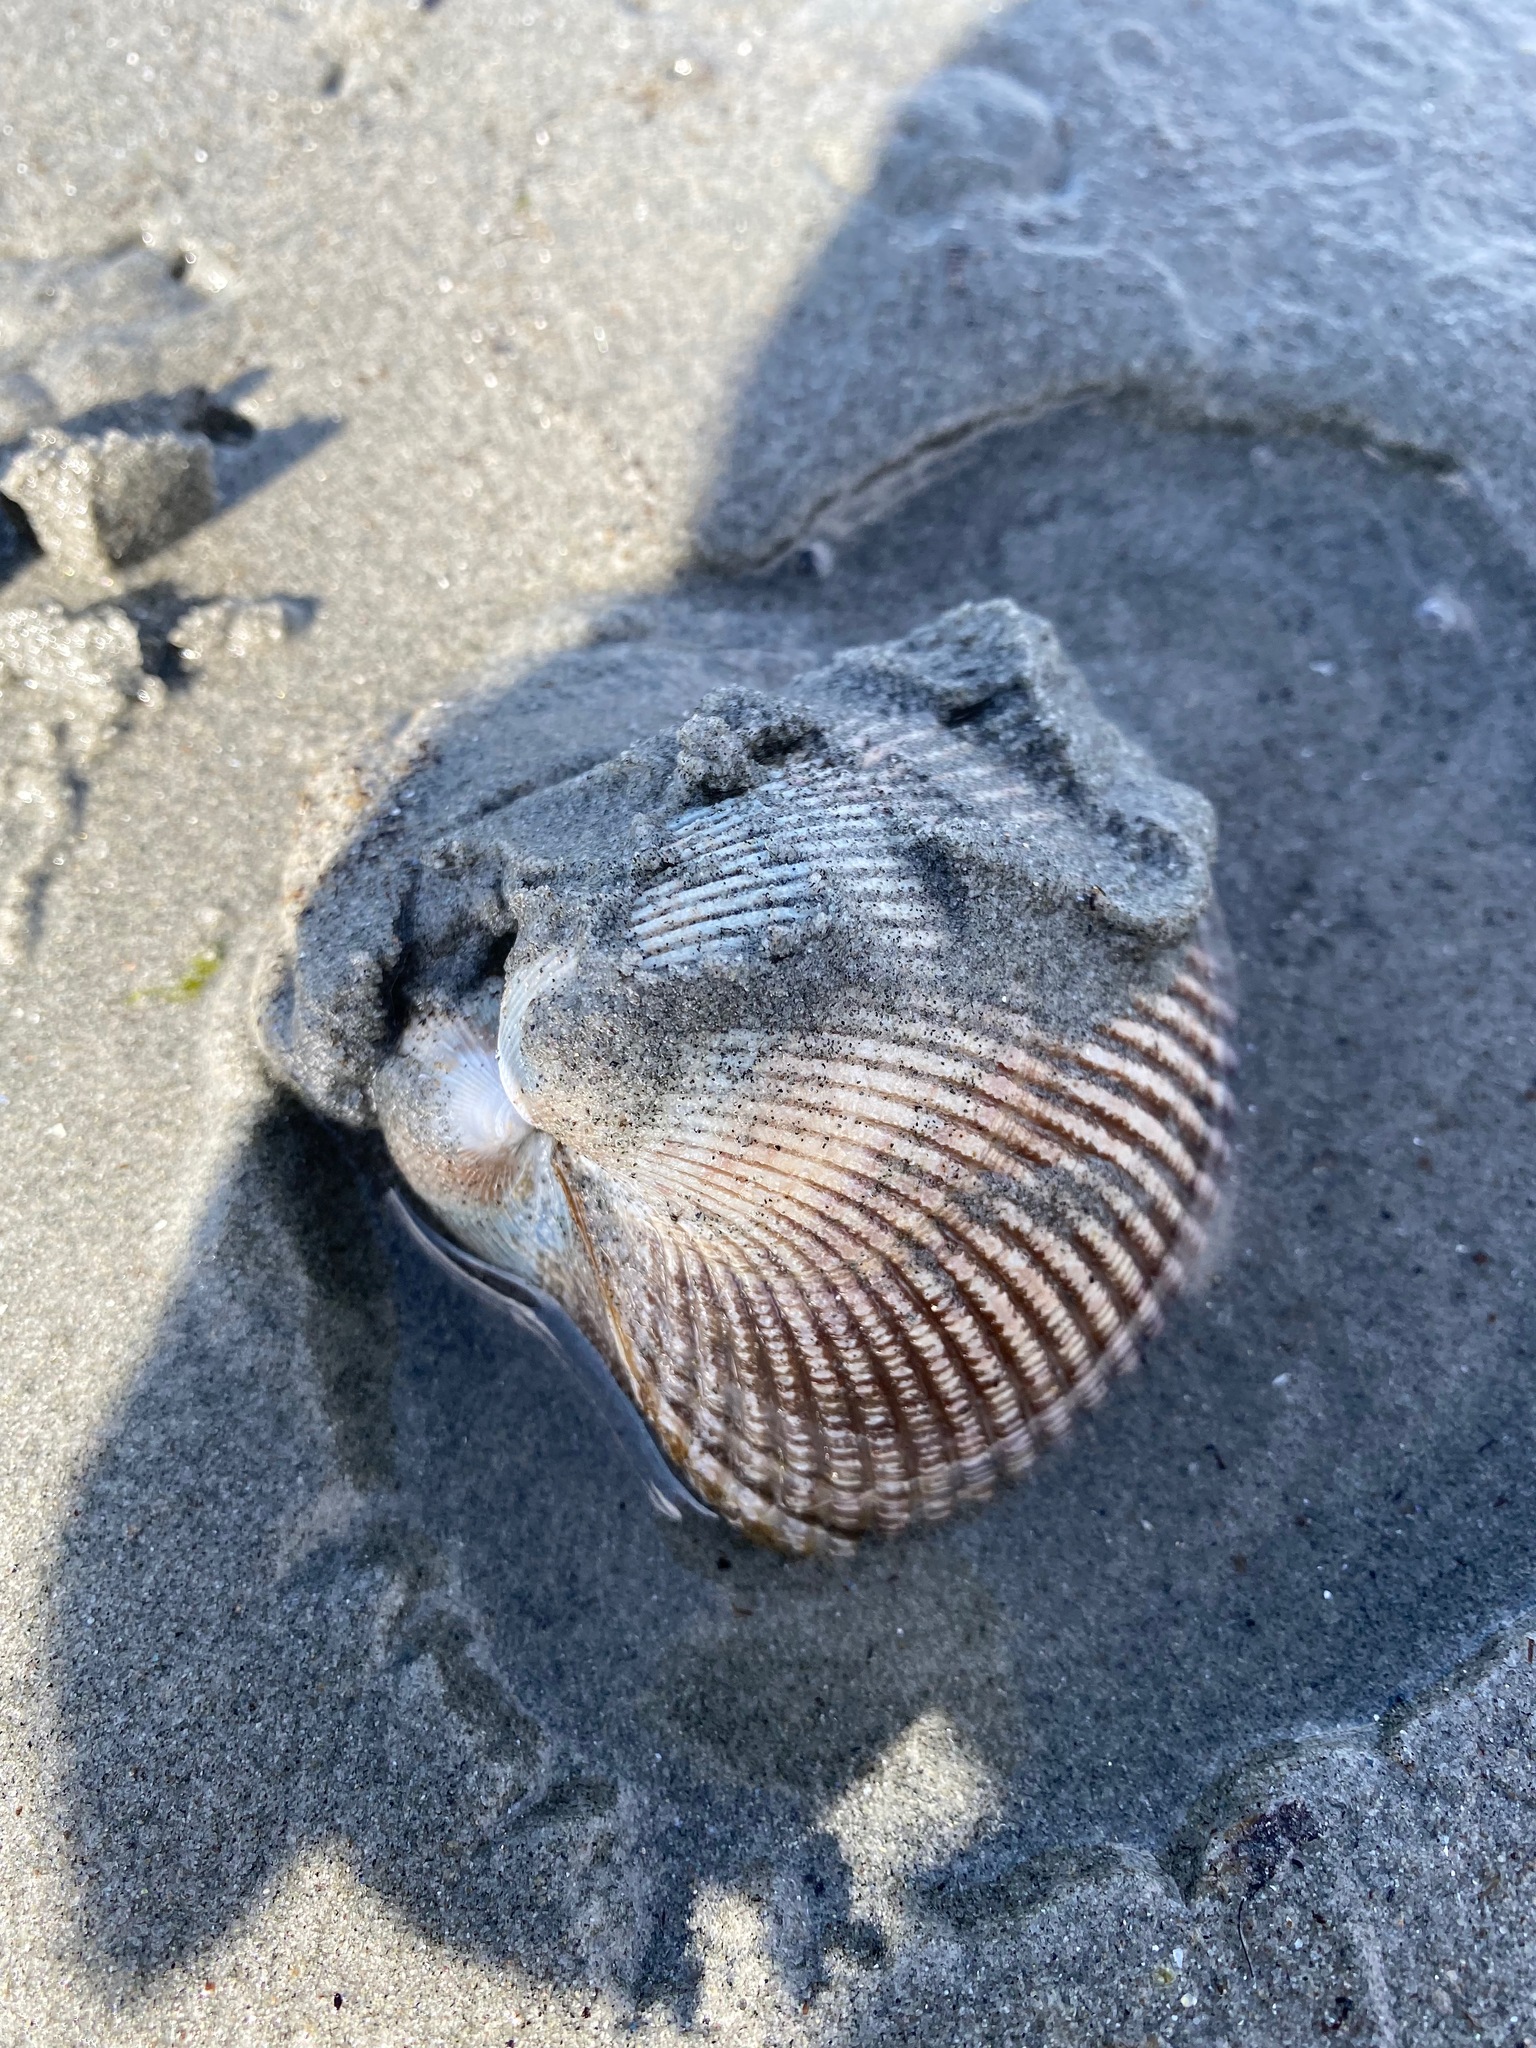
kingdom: Animalia
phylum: Mollusca
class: Bivalvia
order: Cardiida
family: Cardiidae
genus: Clinocardium
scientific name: Clinocardium nuttallii
